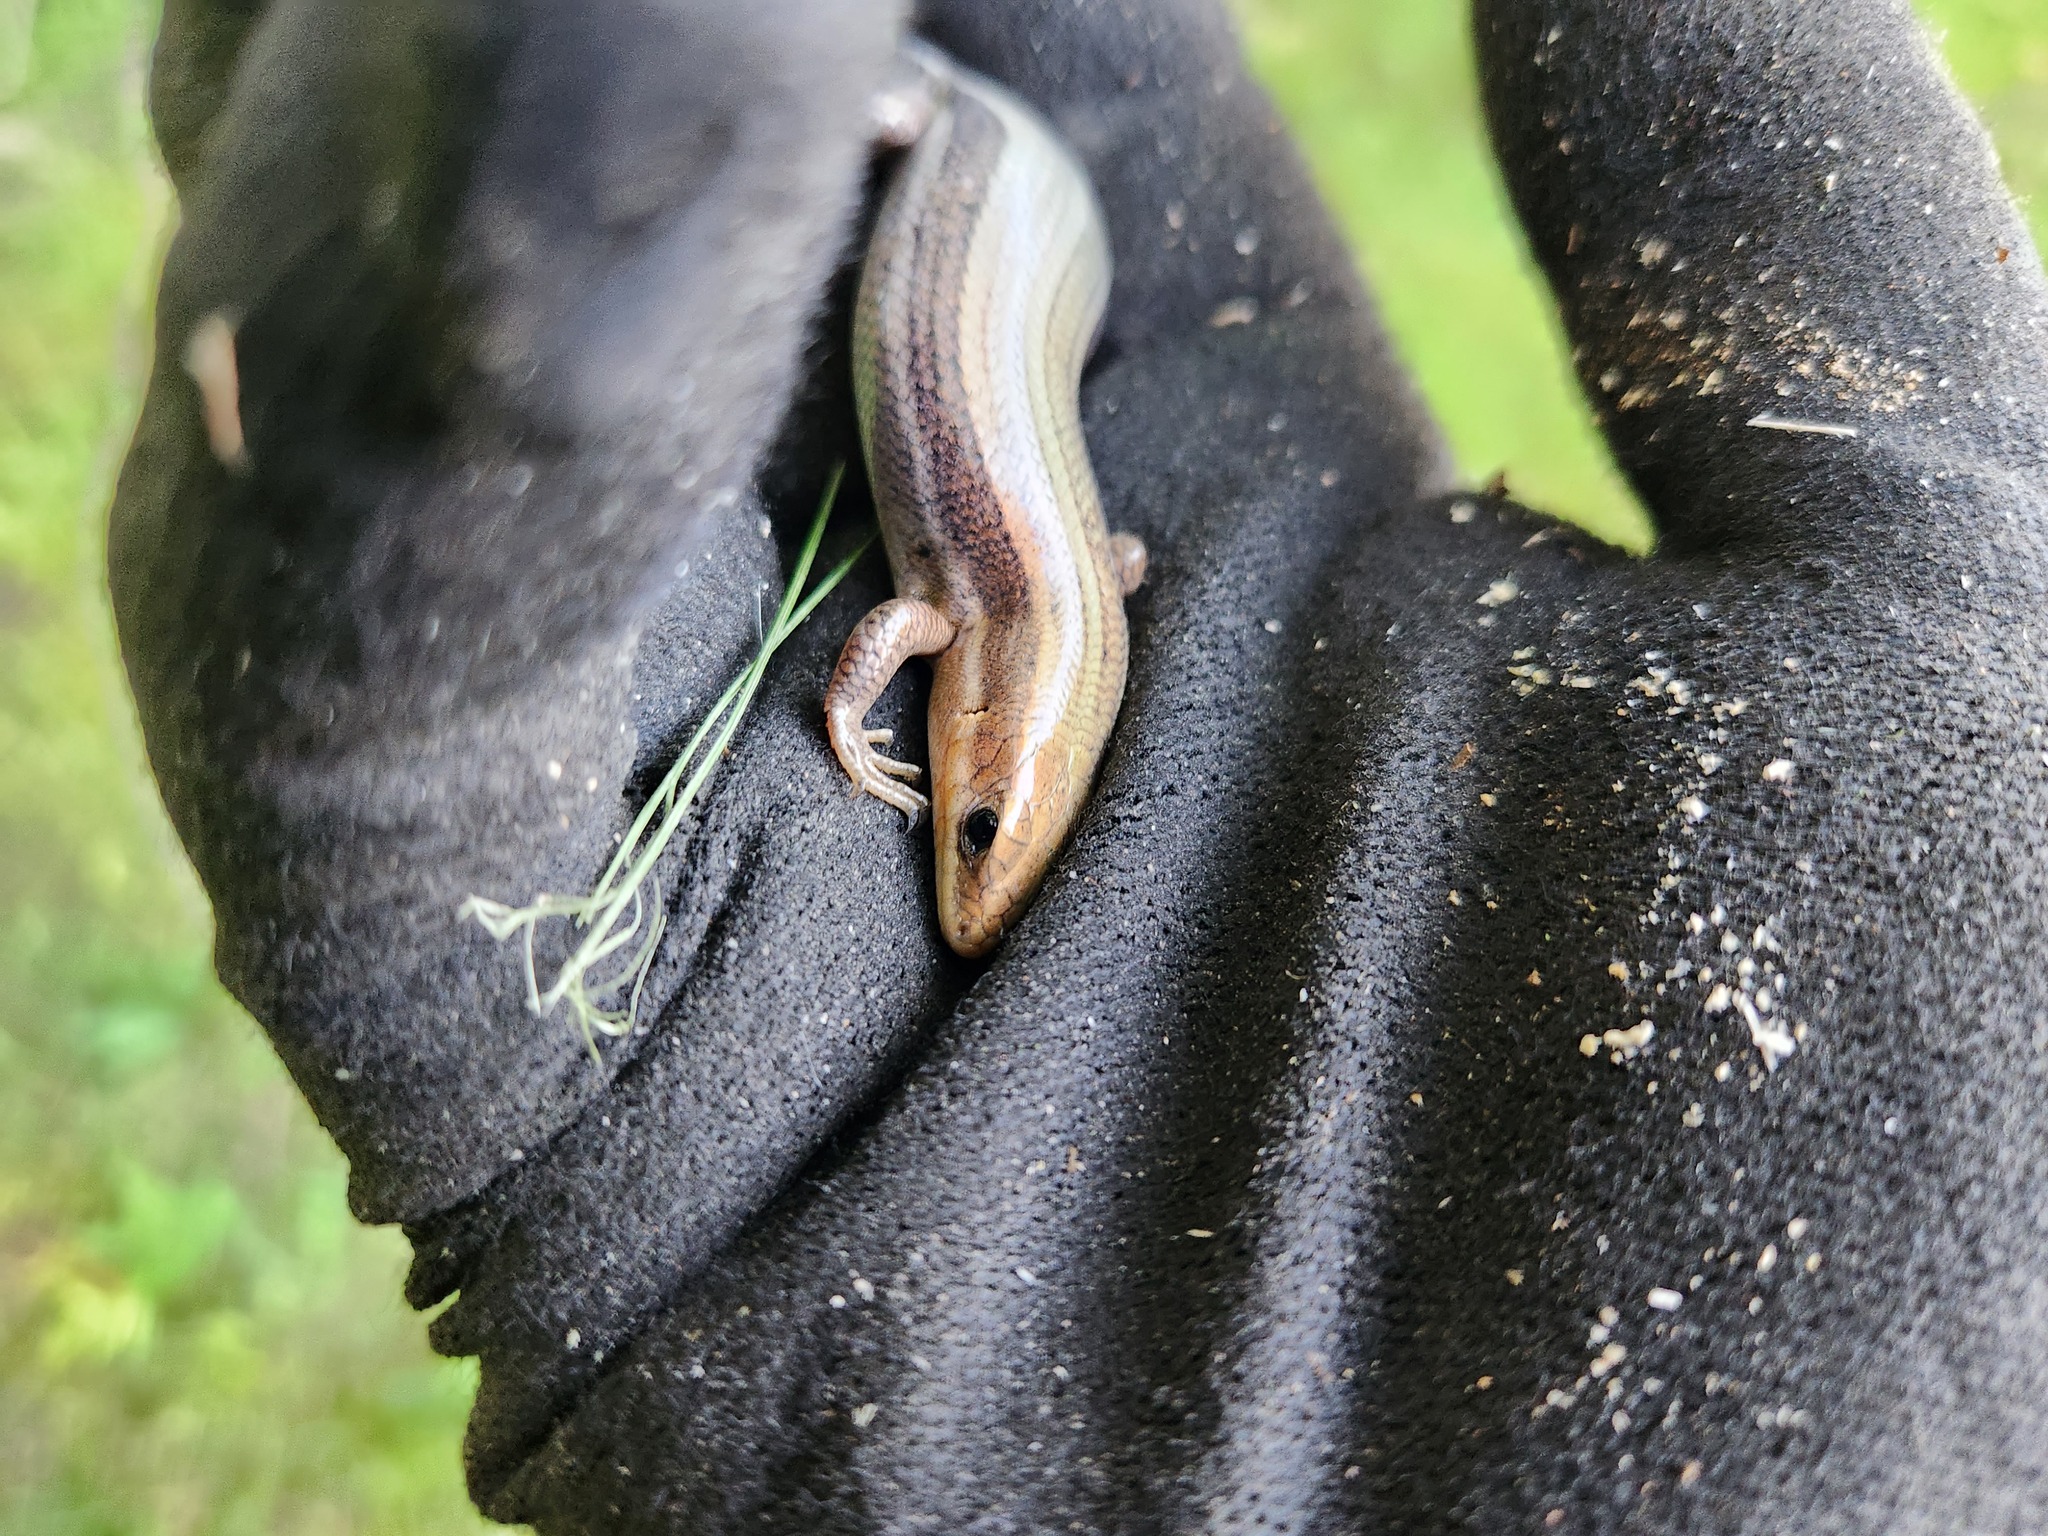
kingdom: Animalia
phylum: Chordata
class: Squamata
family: Scincidae
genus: Plestiodon
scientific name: Plestiodon fasciatus
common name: Five-lined skink
